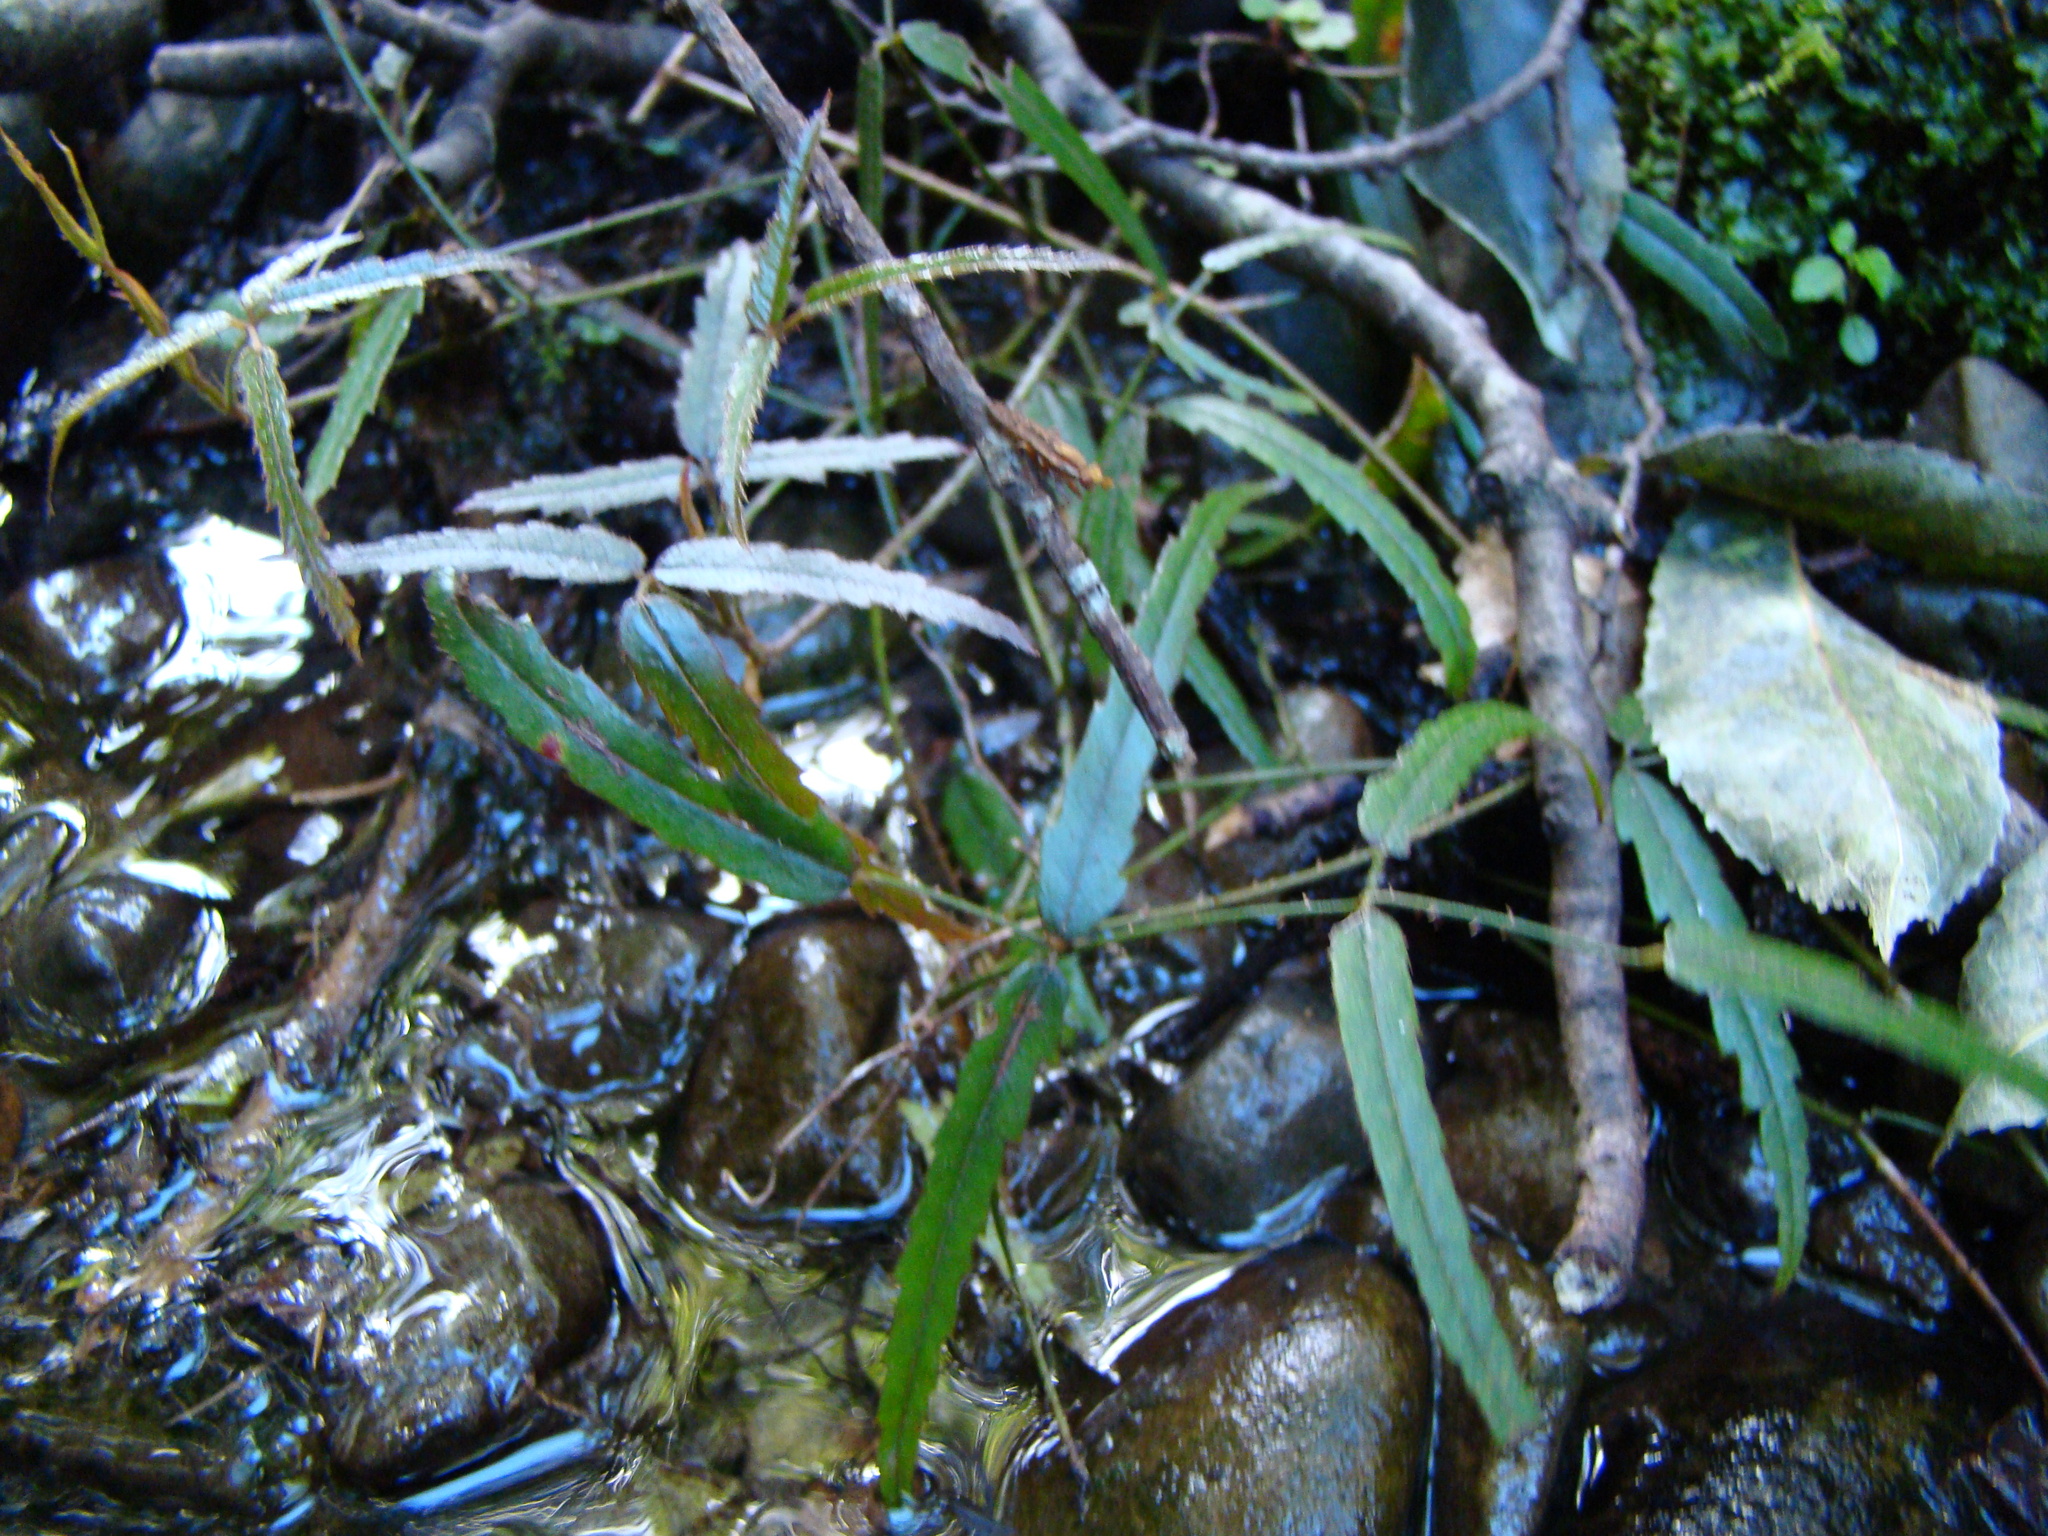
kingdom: Plantae
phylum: Tracheophyta
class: Magnoliopsida
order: Rosales
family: Rosaceae
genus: Rubus
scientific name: Rubus cissoides
